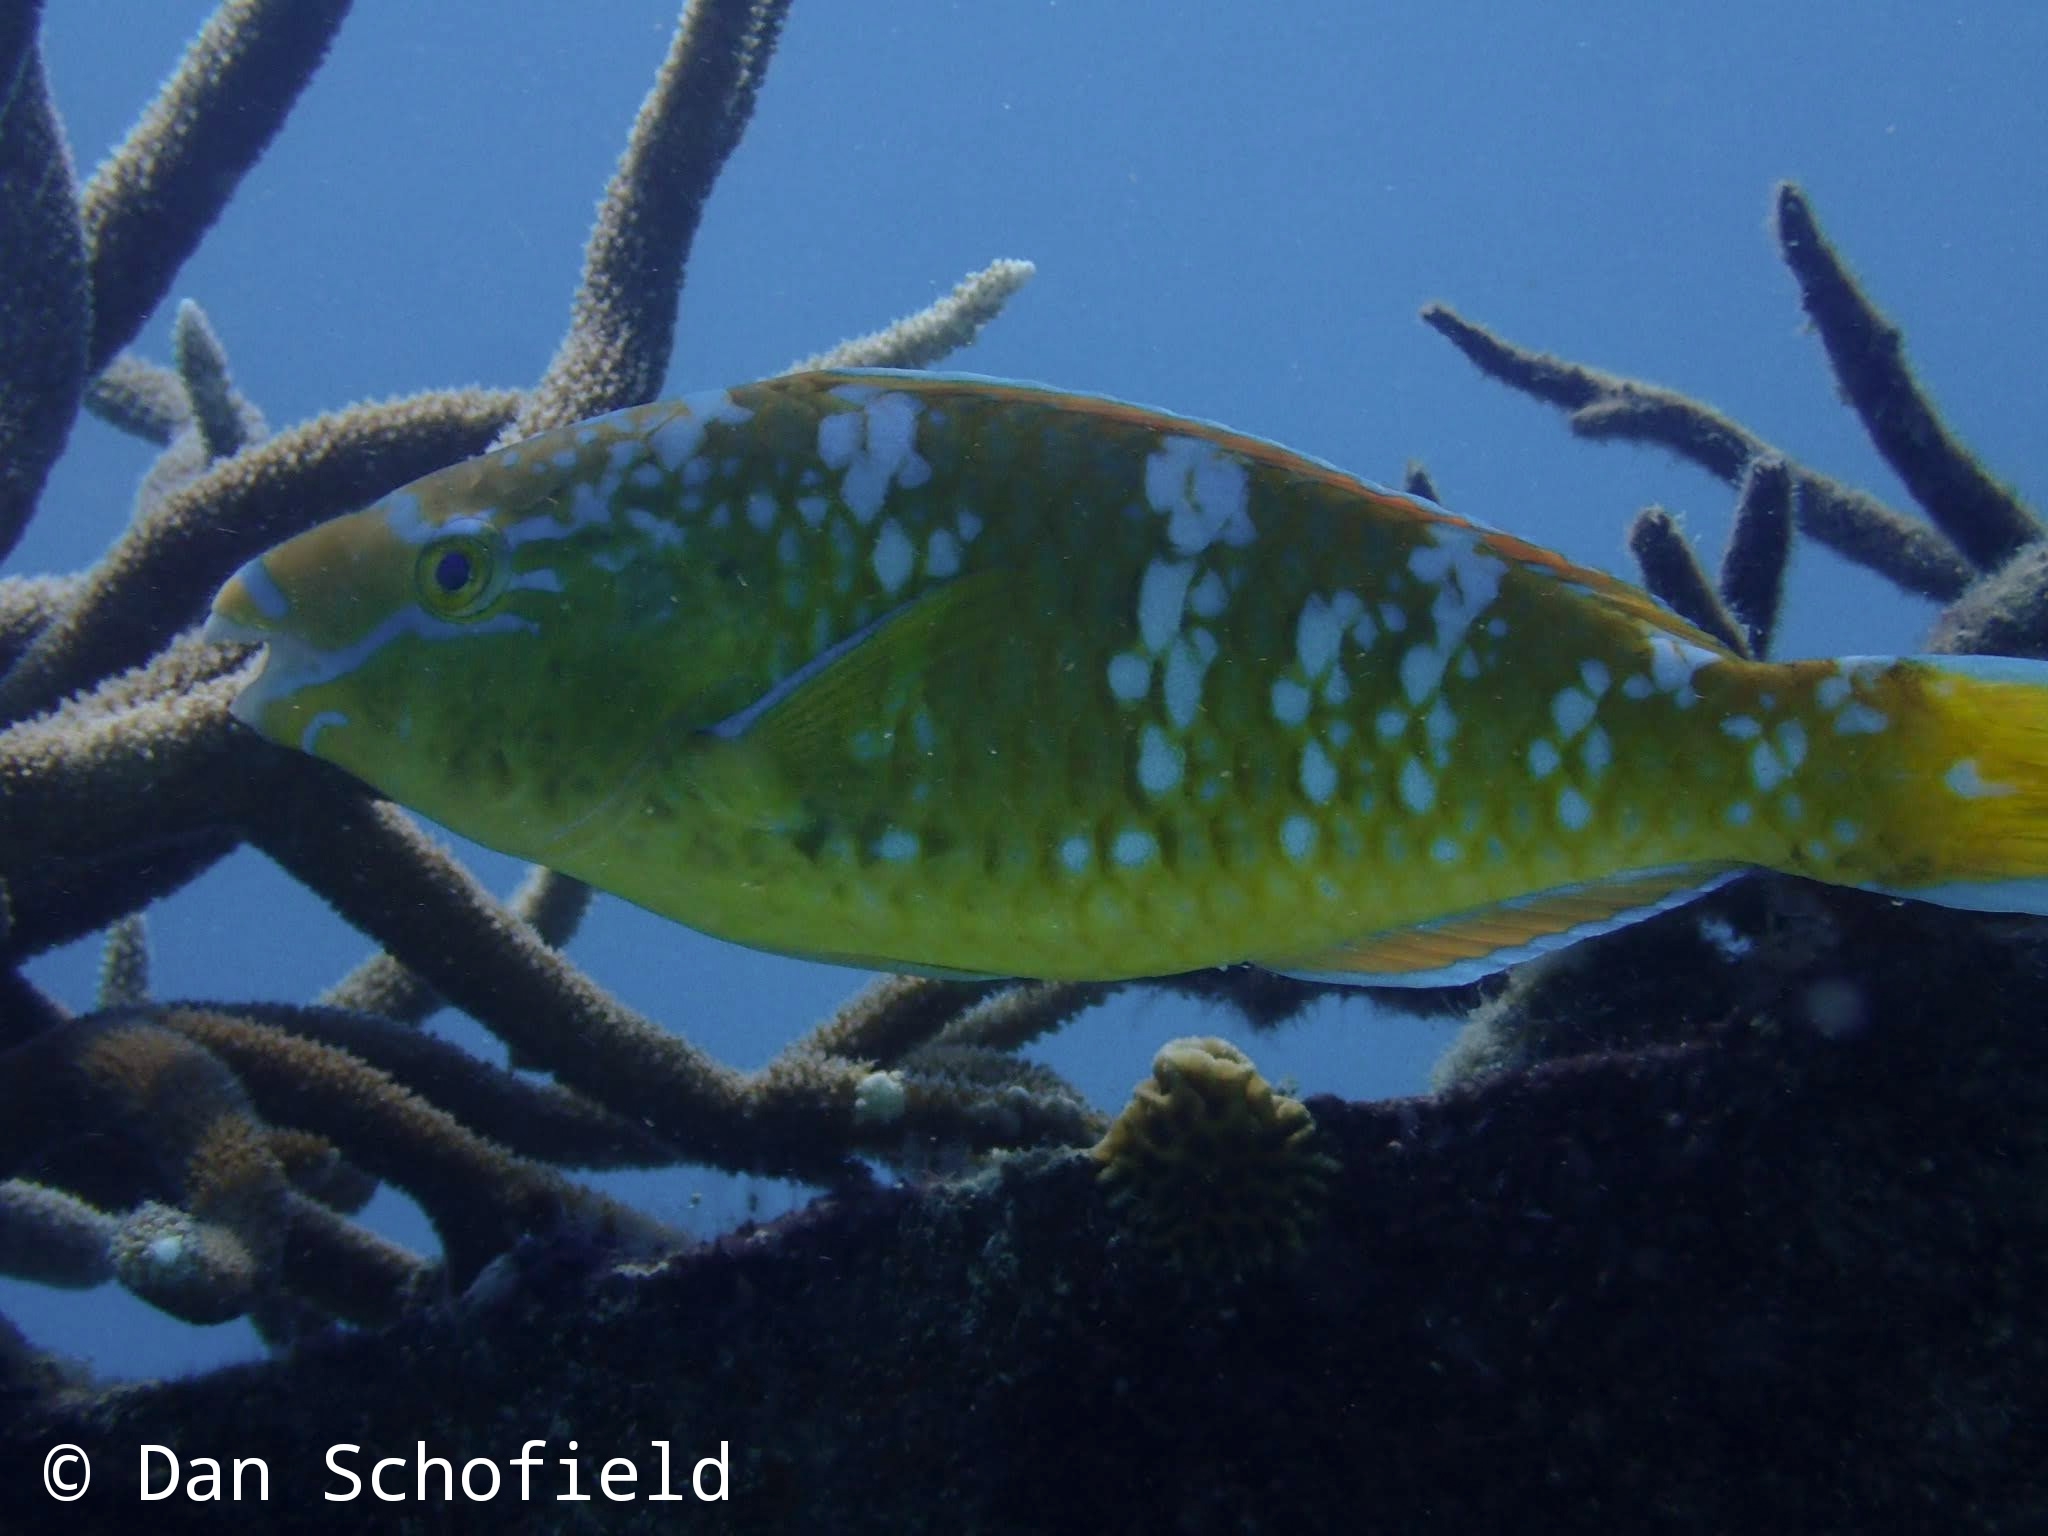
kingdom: Animalia
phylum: Chordata
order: Perciformes
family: Scaridae
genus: Scarus
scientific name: Scarus ghobban
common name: Blue-barred parrotfish
